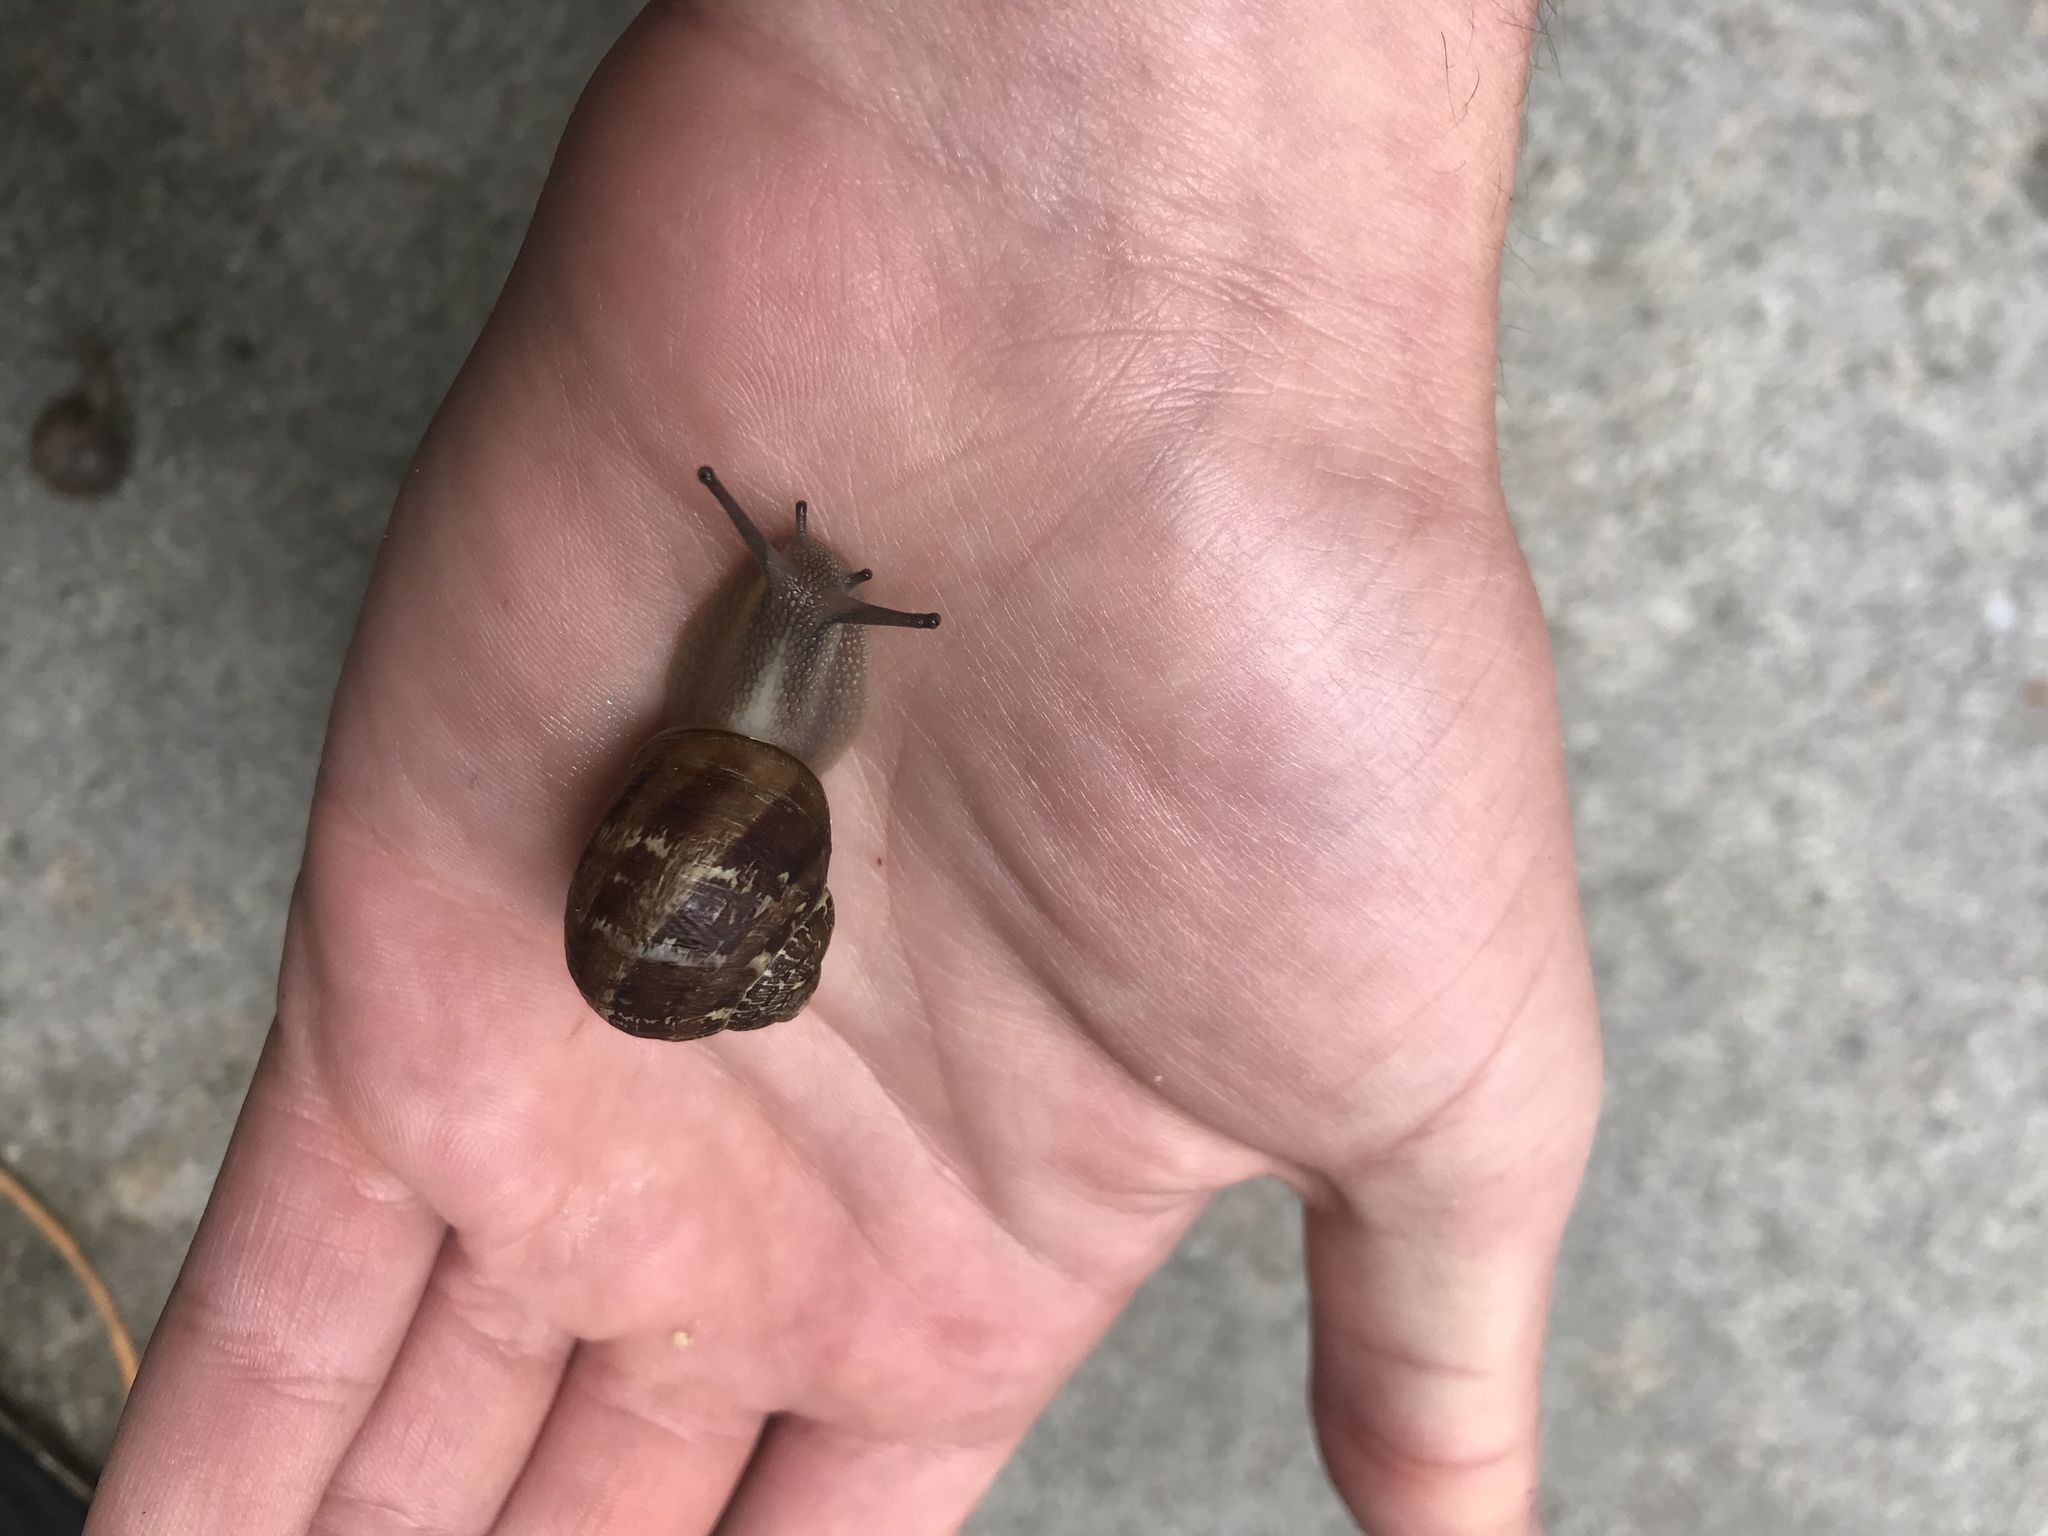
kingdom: Animalia
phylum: Mollusca
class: Gastropoda
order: Stylommatophora
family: Helicidae
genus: Cornu
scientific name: Cornu aspersum
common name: Brown garden snail
